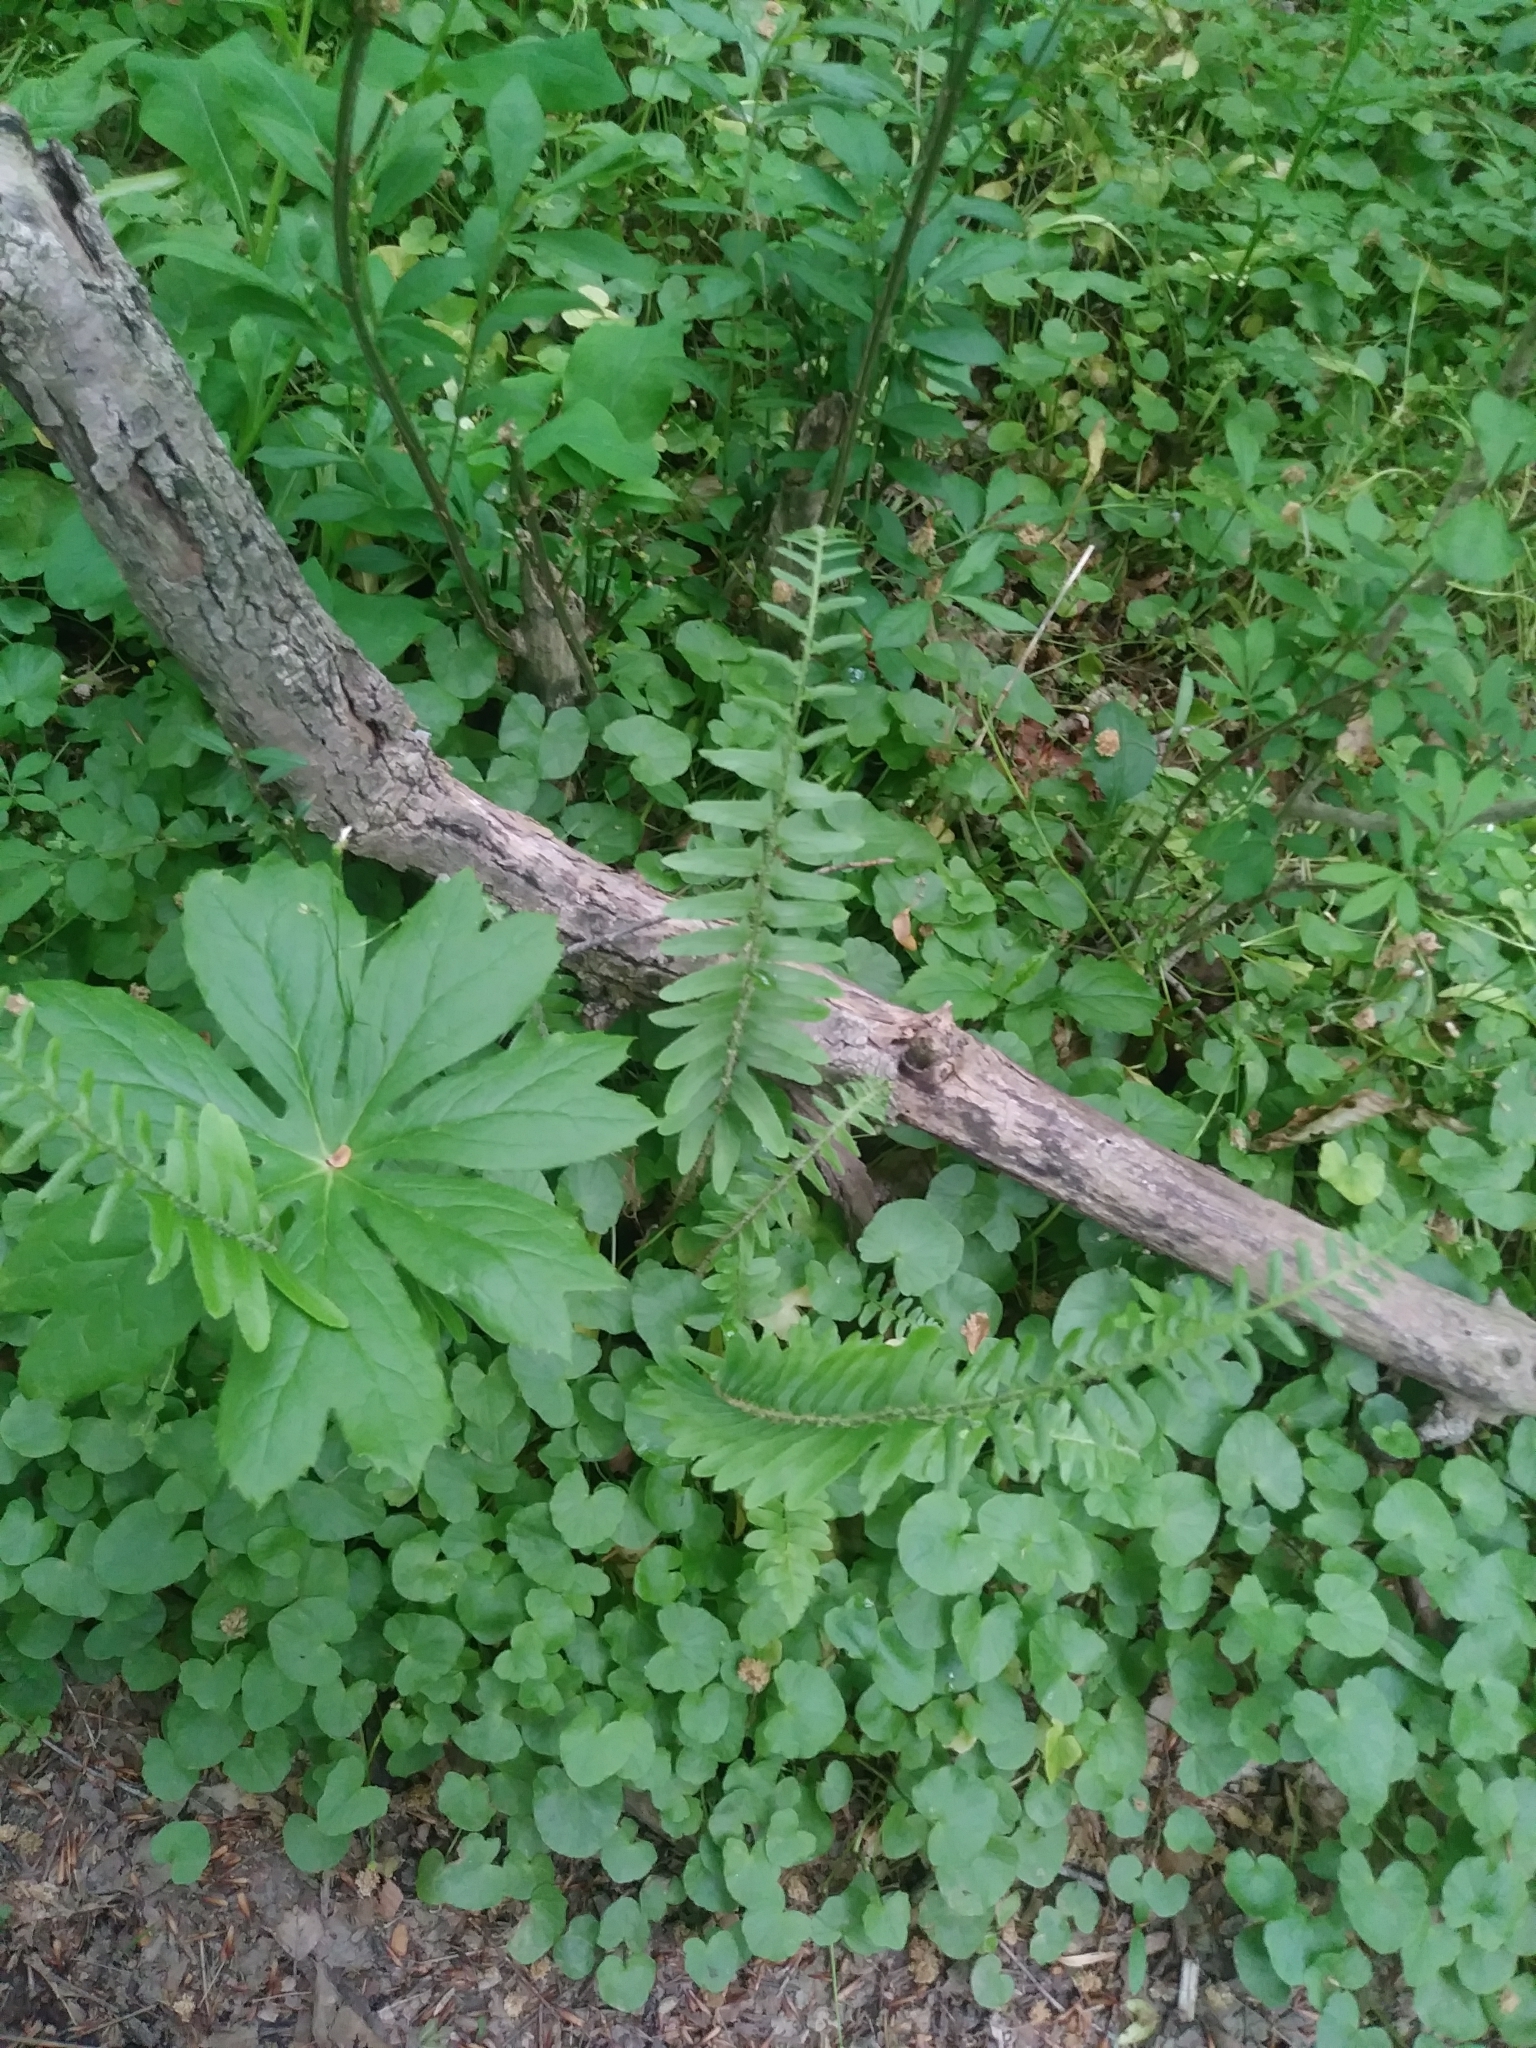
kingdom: Plantae
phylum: Tracheophyta
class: Polypodiopsida
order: Polypodiales
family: Dryopteridaceae
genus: Polystichum
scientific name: Polystichum acrostichoides
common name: Christmas fern
